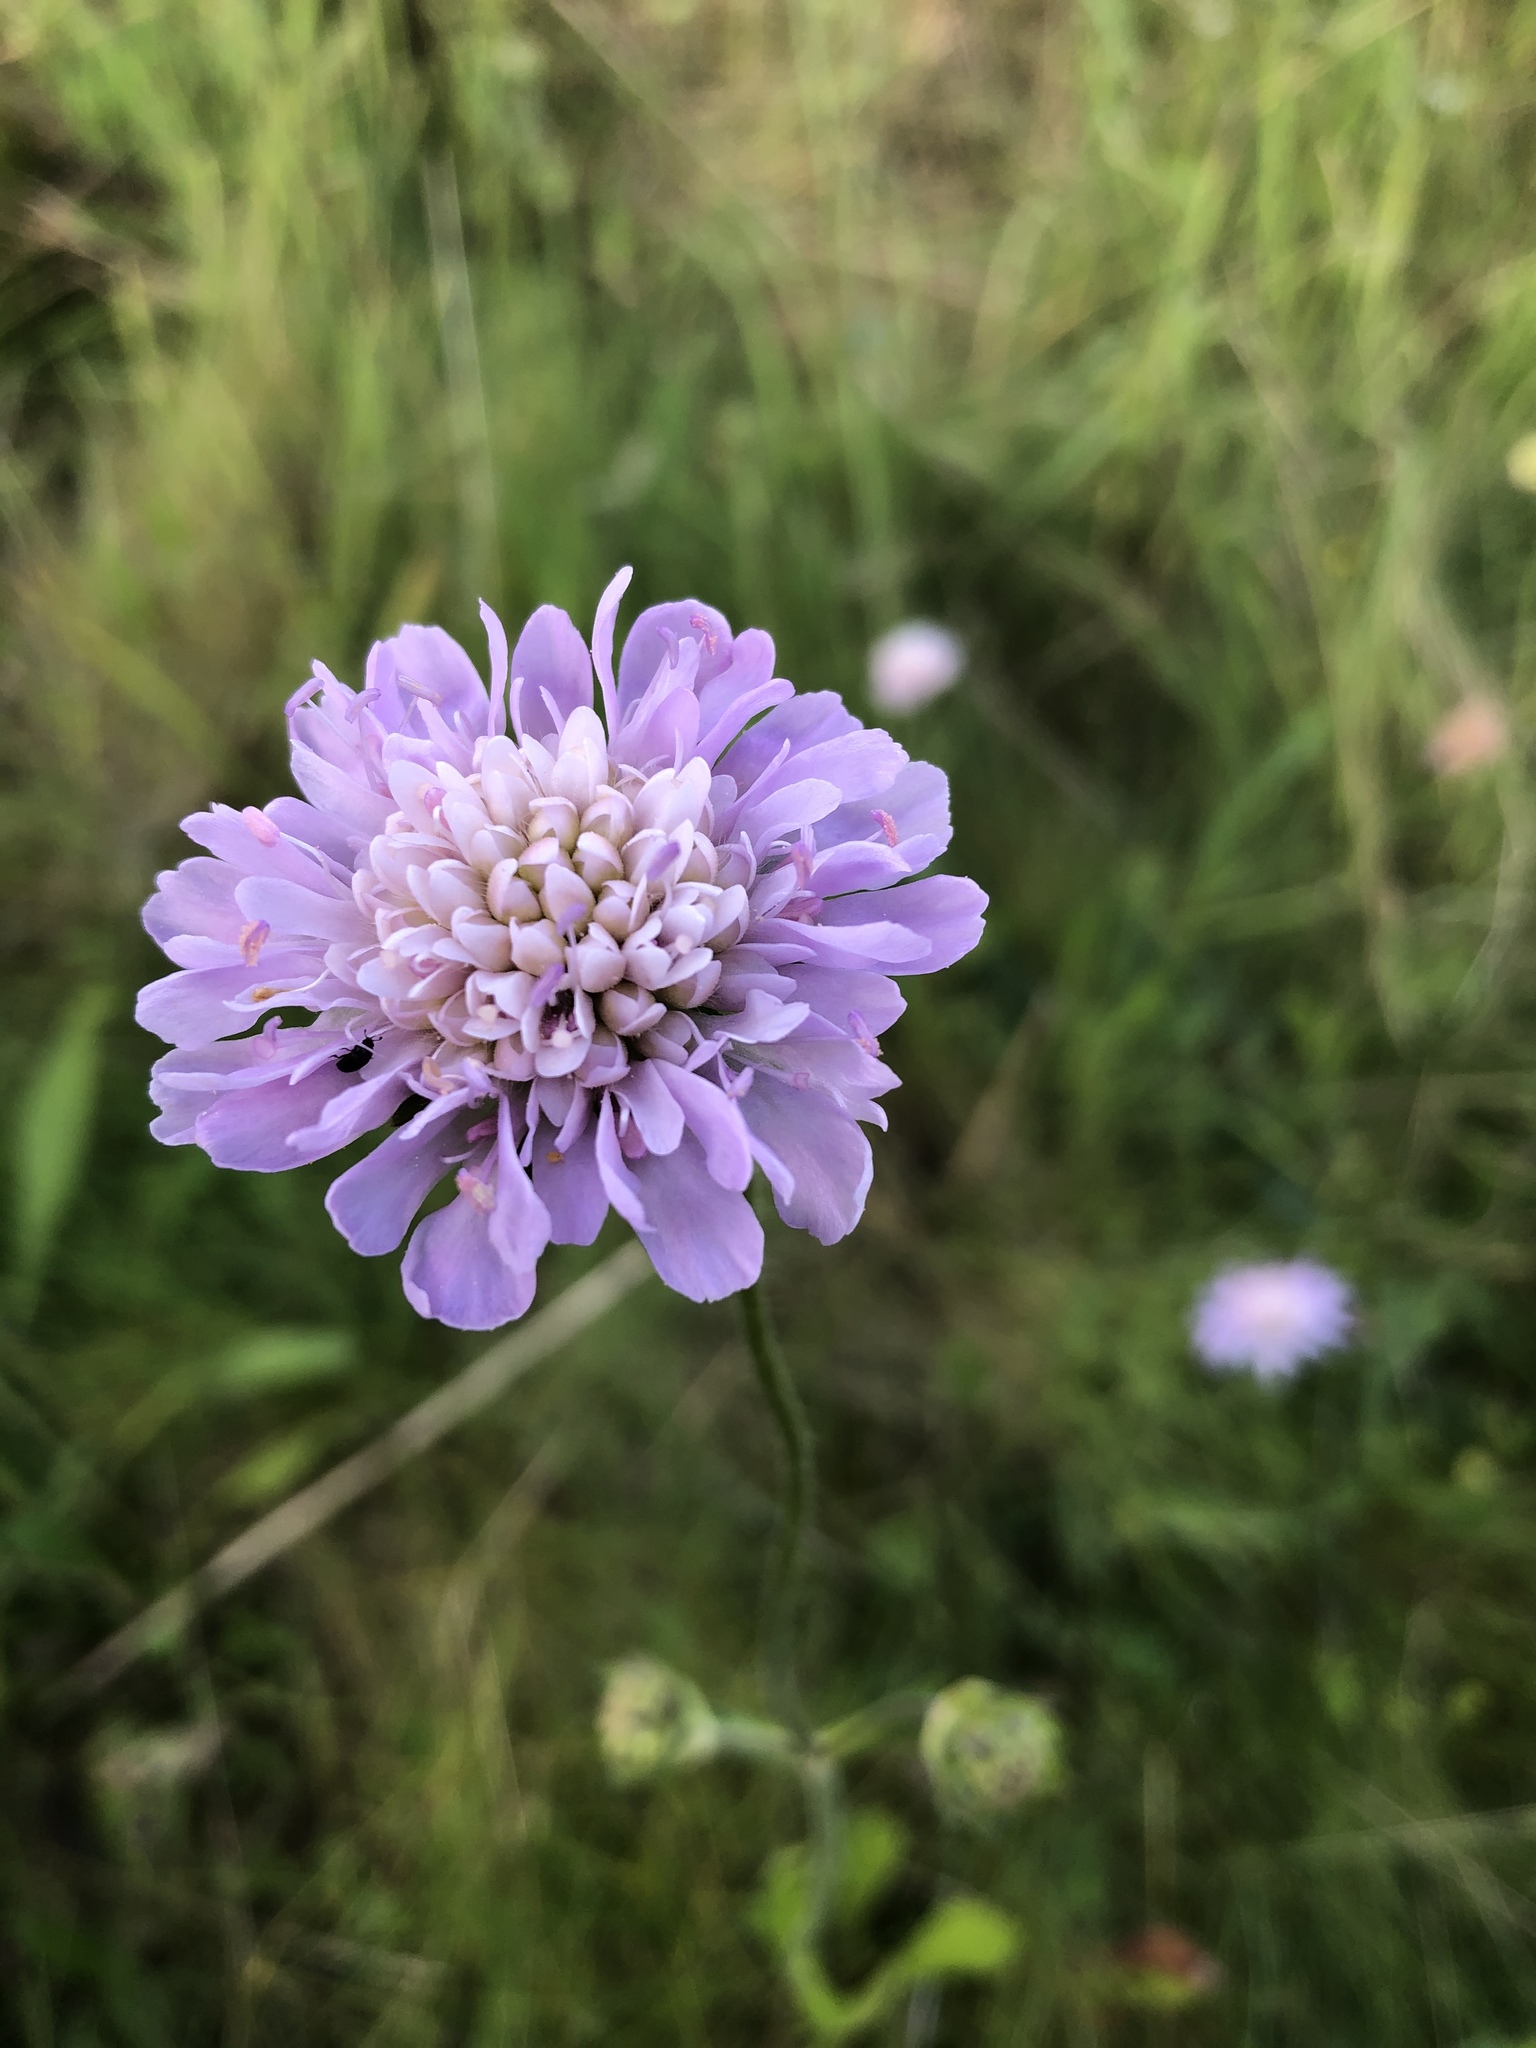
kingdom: Plantae
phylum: Tracheophyta
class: Magnoliopsida
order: Dipsacales
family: Caprifoliaceae
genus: Knautia
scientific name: Knautia arvensis
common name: Field scabiosa
